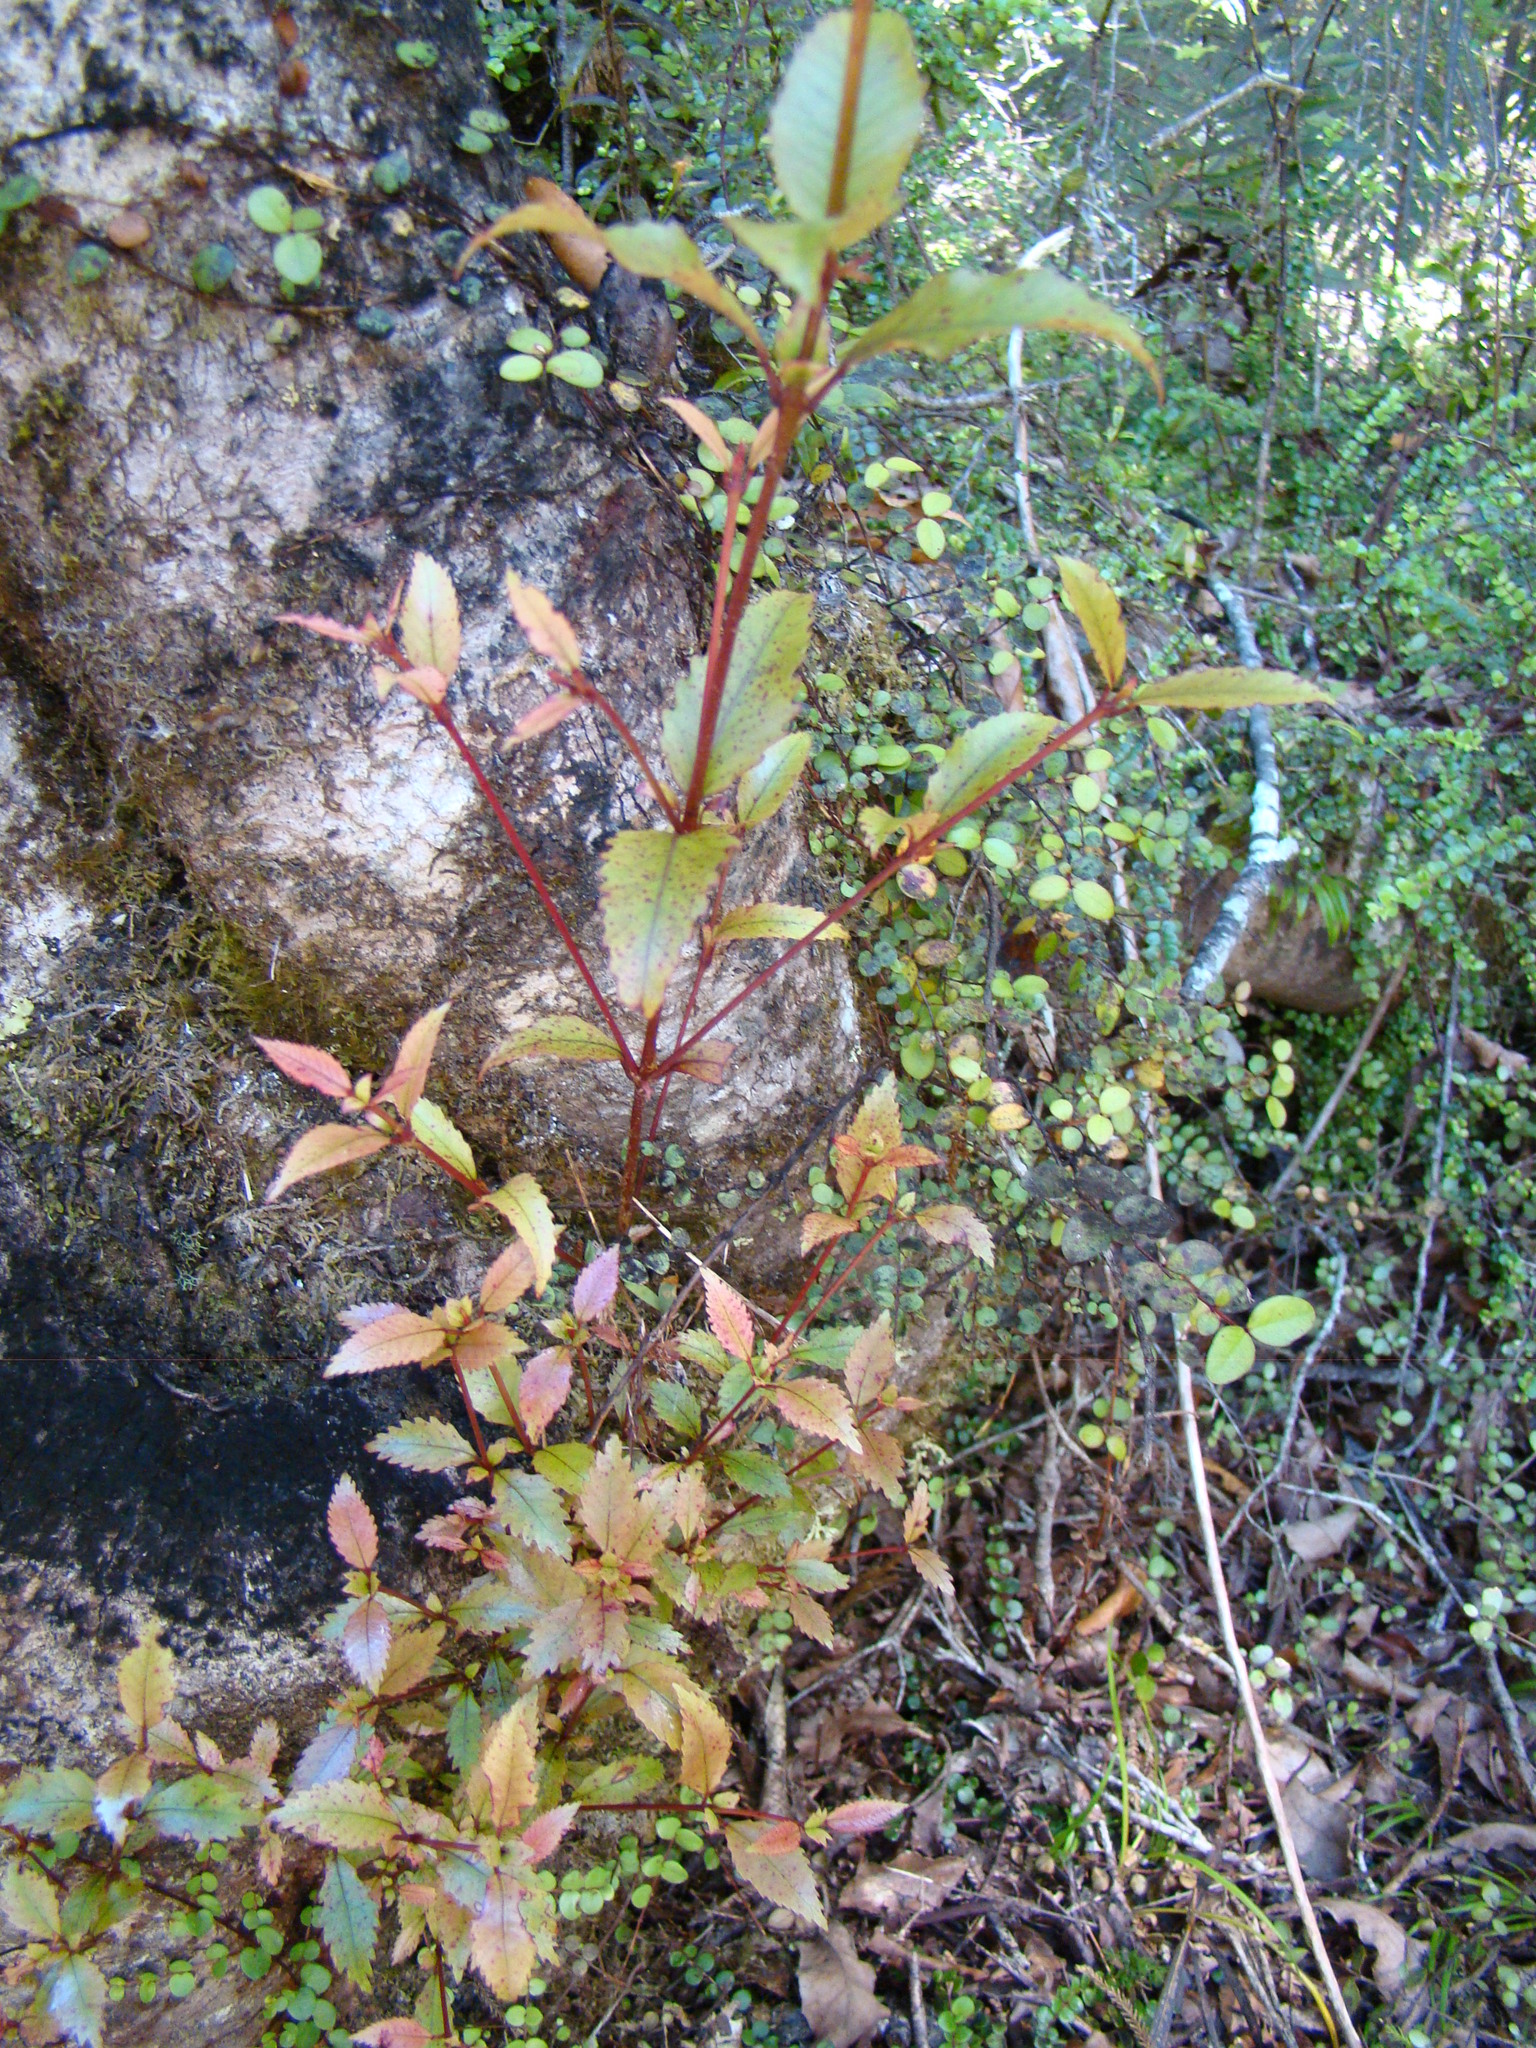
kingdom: Plantae
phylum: Tracheophyta
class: Magnoliopsida
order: Oxalidales
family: Cunoniaceae
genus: Pterophylla
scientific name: Pterophylla racemosa
